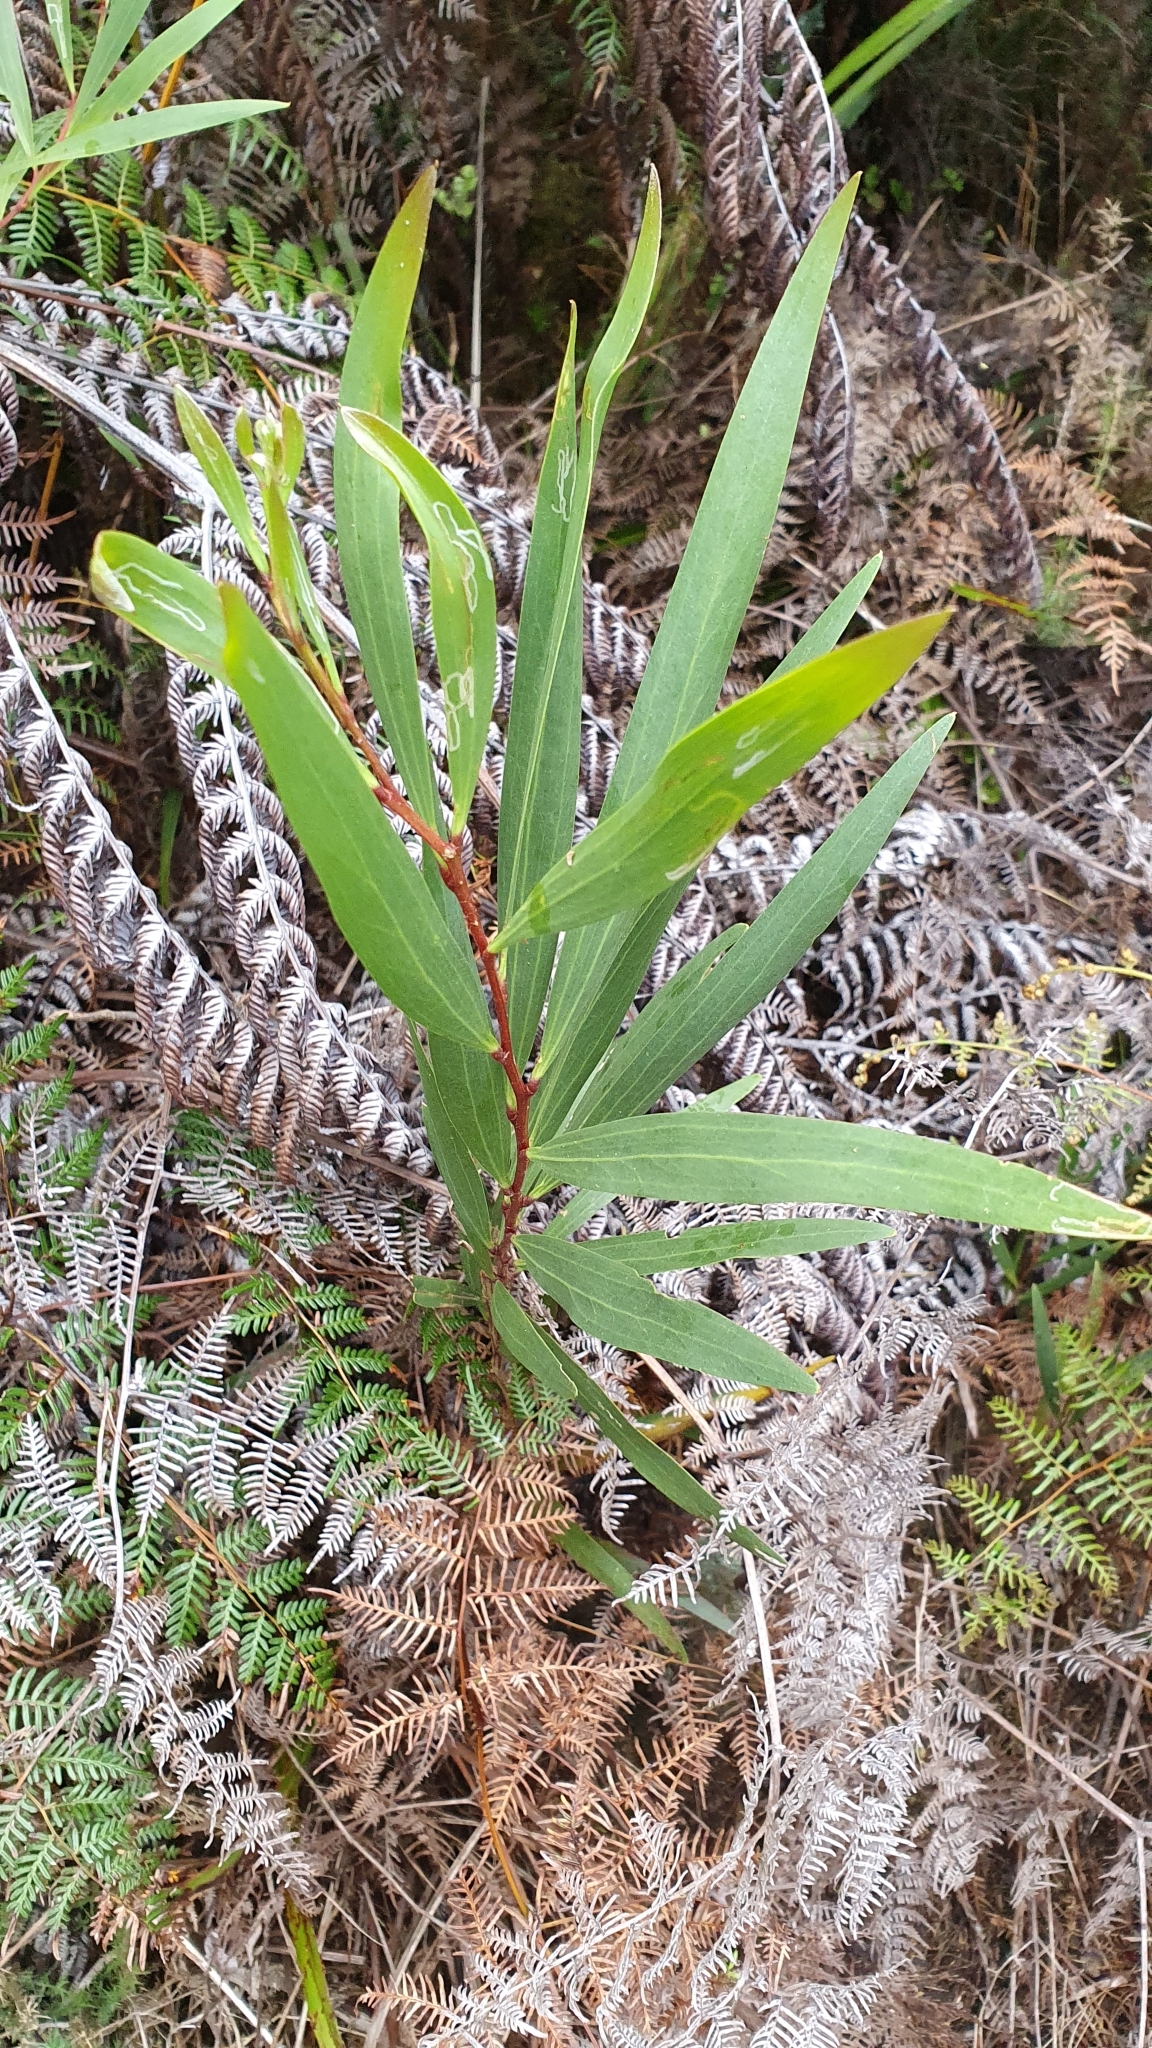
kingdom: Plantae
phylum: Tracheophyta
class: Magnoliopsida
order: Fabales
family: Fabaceae
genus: Acacia
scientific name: Acacia longifolia
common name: Sydney golden wattle
